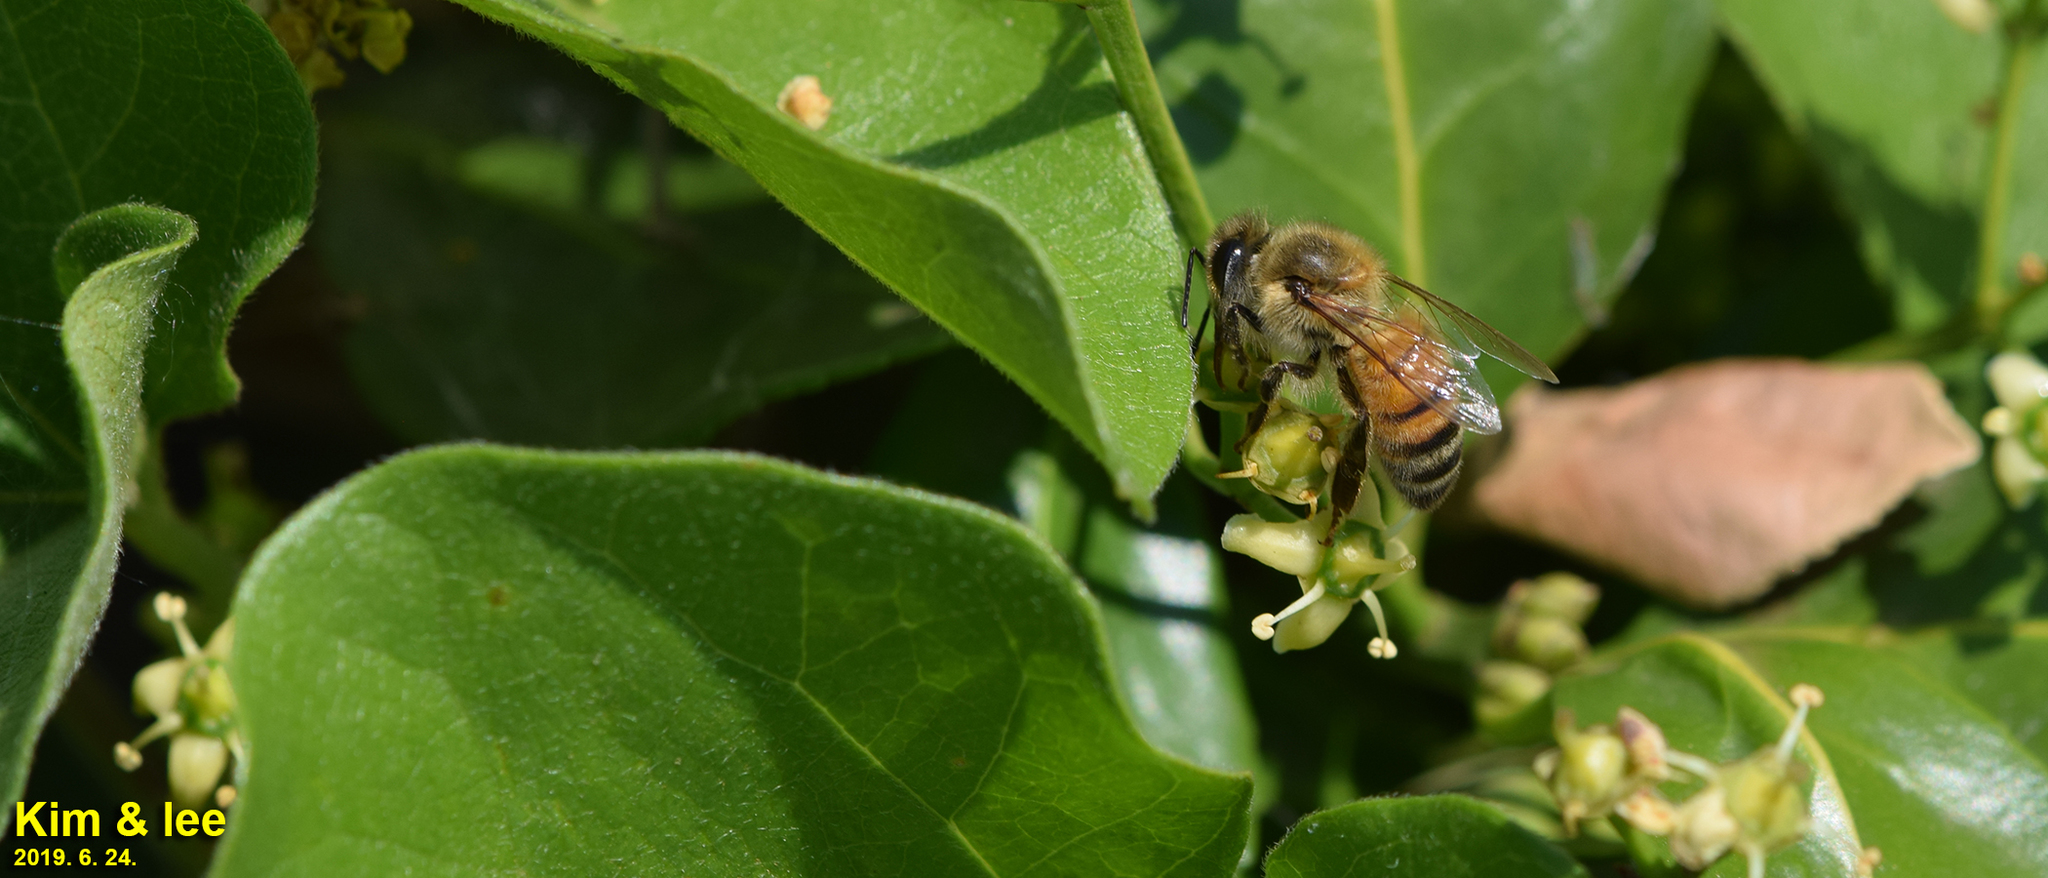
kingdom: Animalia
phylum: Arthropoda
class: Insecta
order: Hymenoptera
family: Apidae
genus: Apis
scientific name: Apis mellifera
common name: Honey bee
